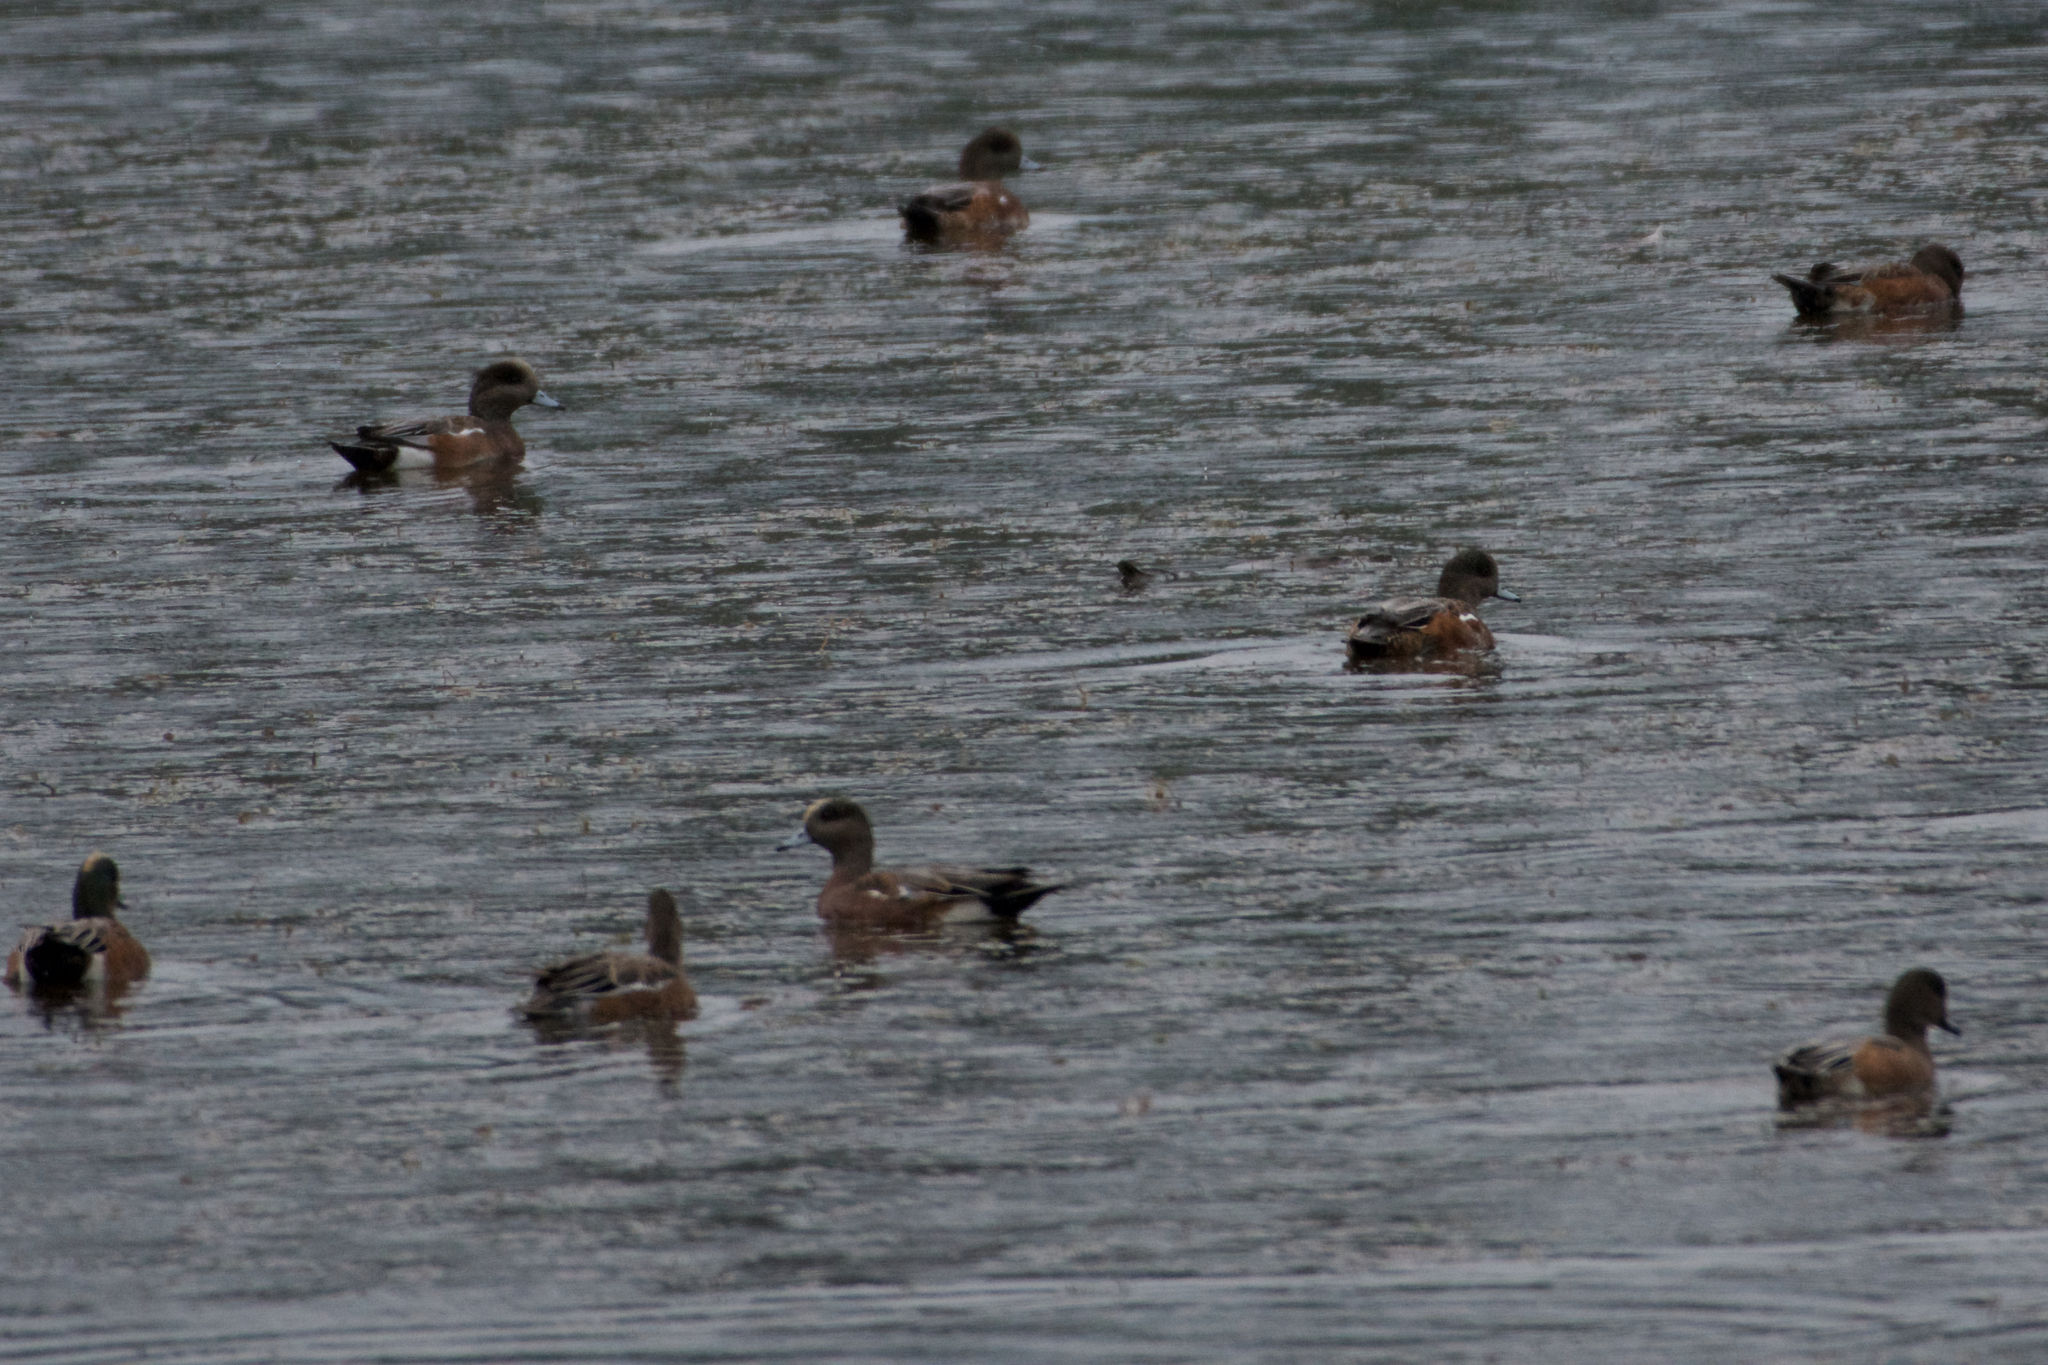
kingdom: Animalia
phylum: Chordata
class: Aves
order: Anseriformes
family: Anatidae
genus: Mareca
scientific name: Mareca americana
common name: American wigeon
